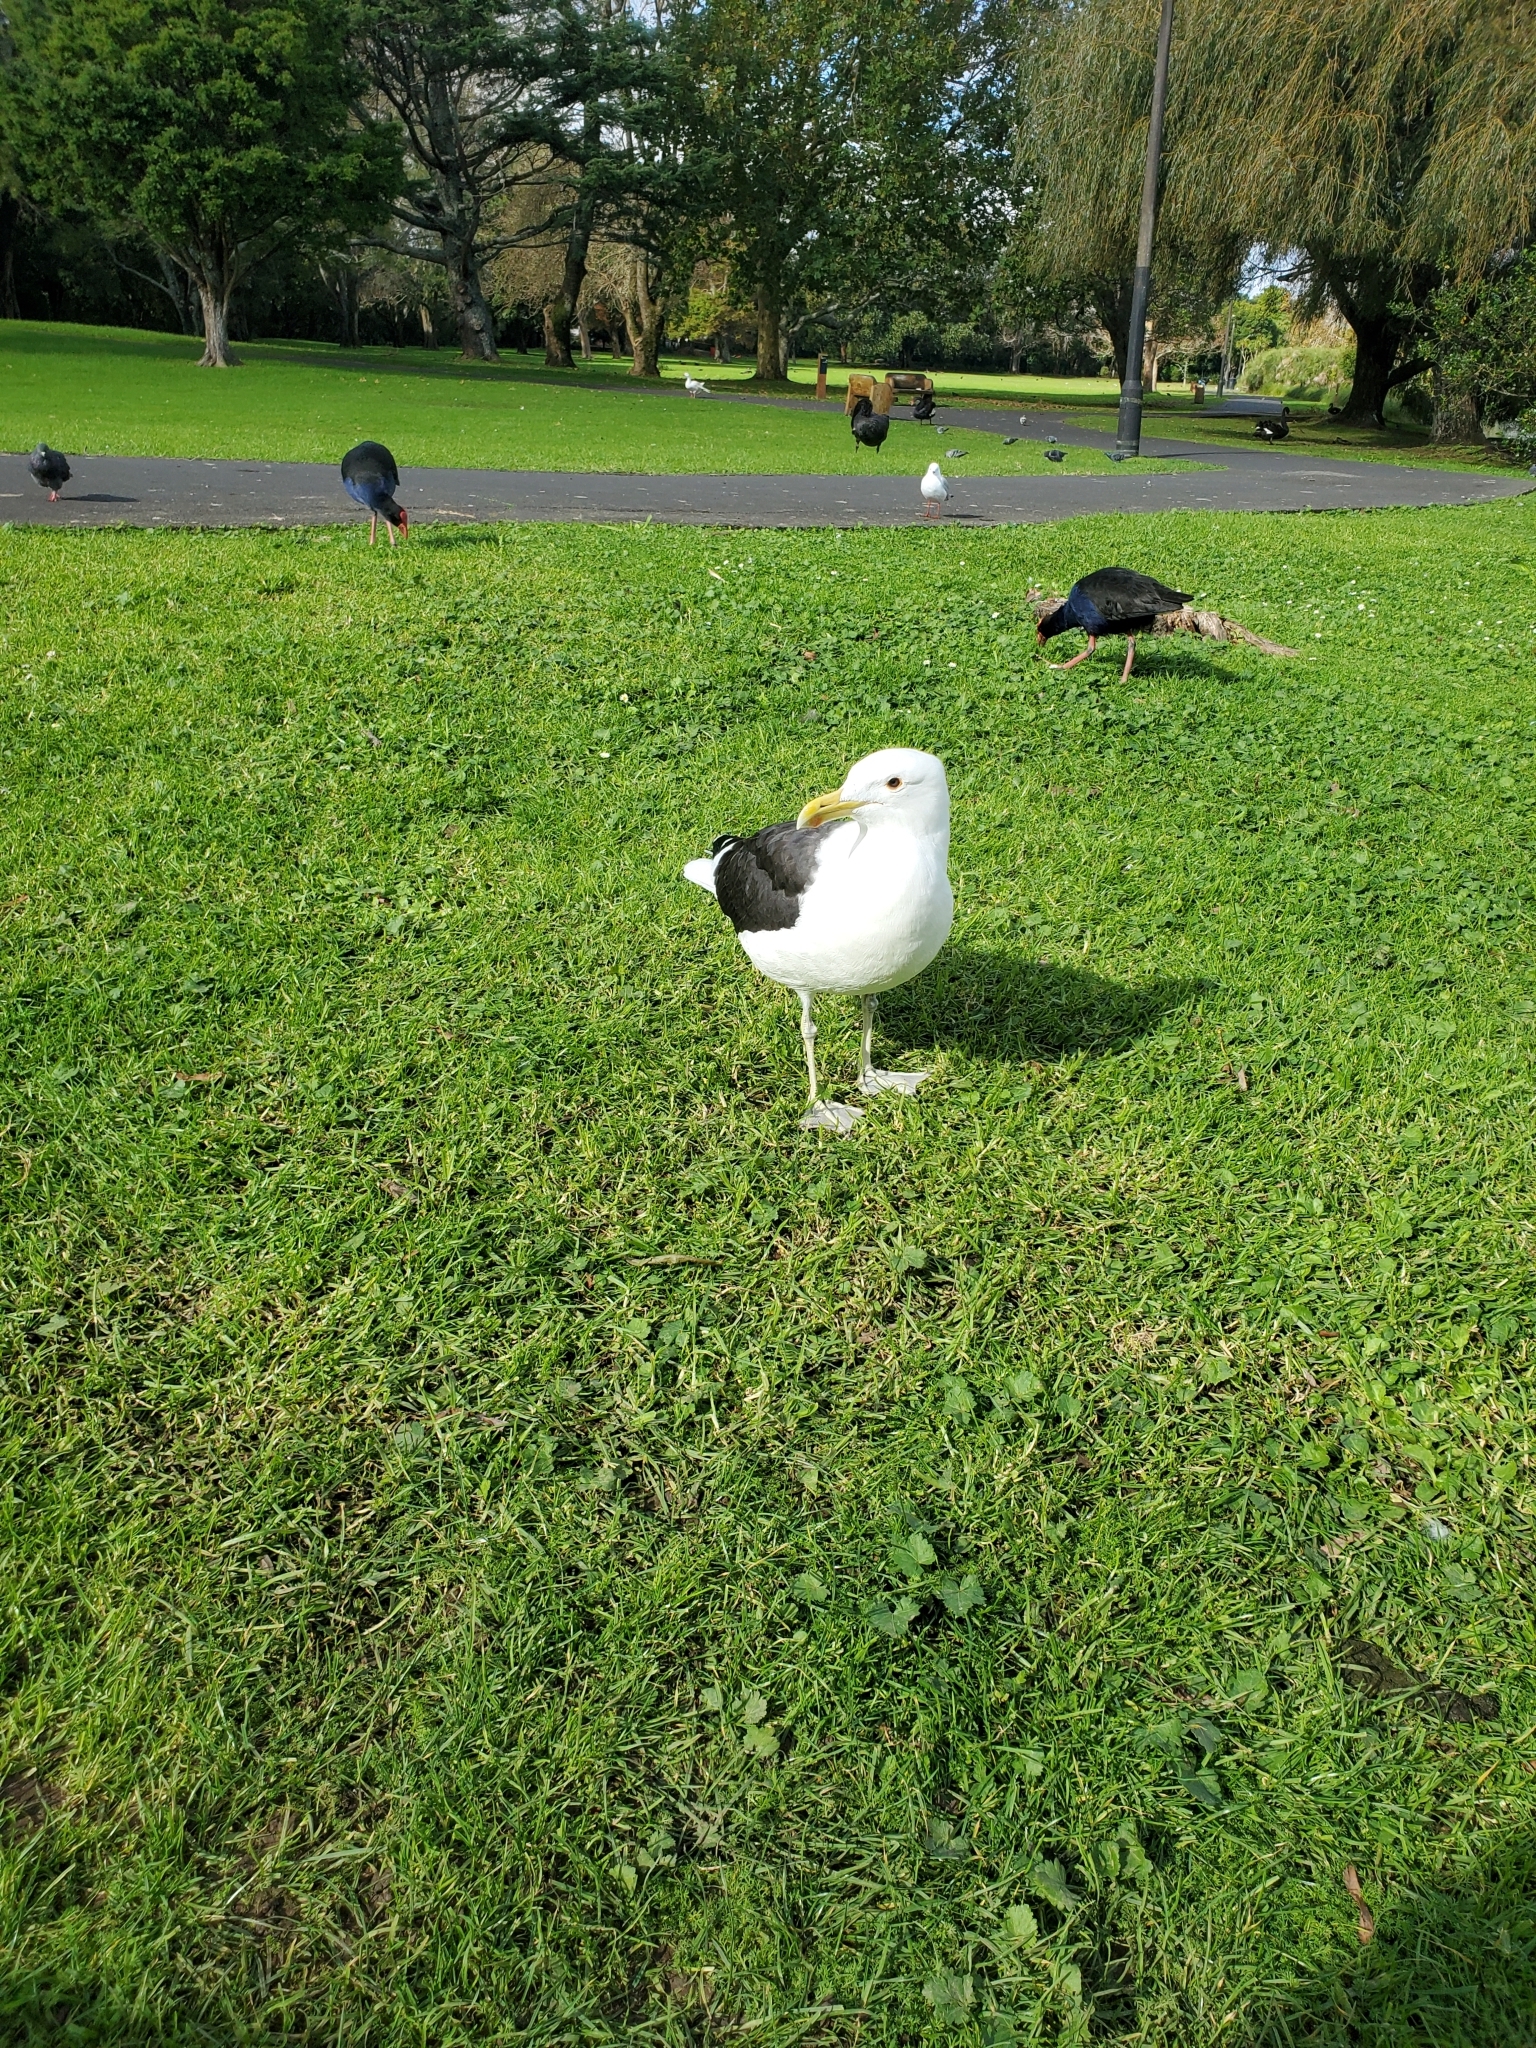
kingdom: Animalia
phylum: Chordata
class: Aves
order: Charadriiformes
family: Laridae
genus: Larus
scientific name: Larus dominicanus
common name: Kelp gull
